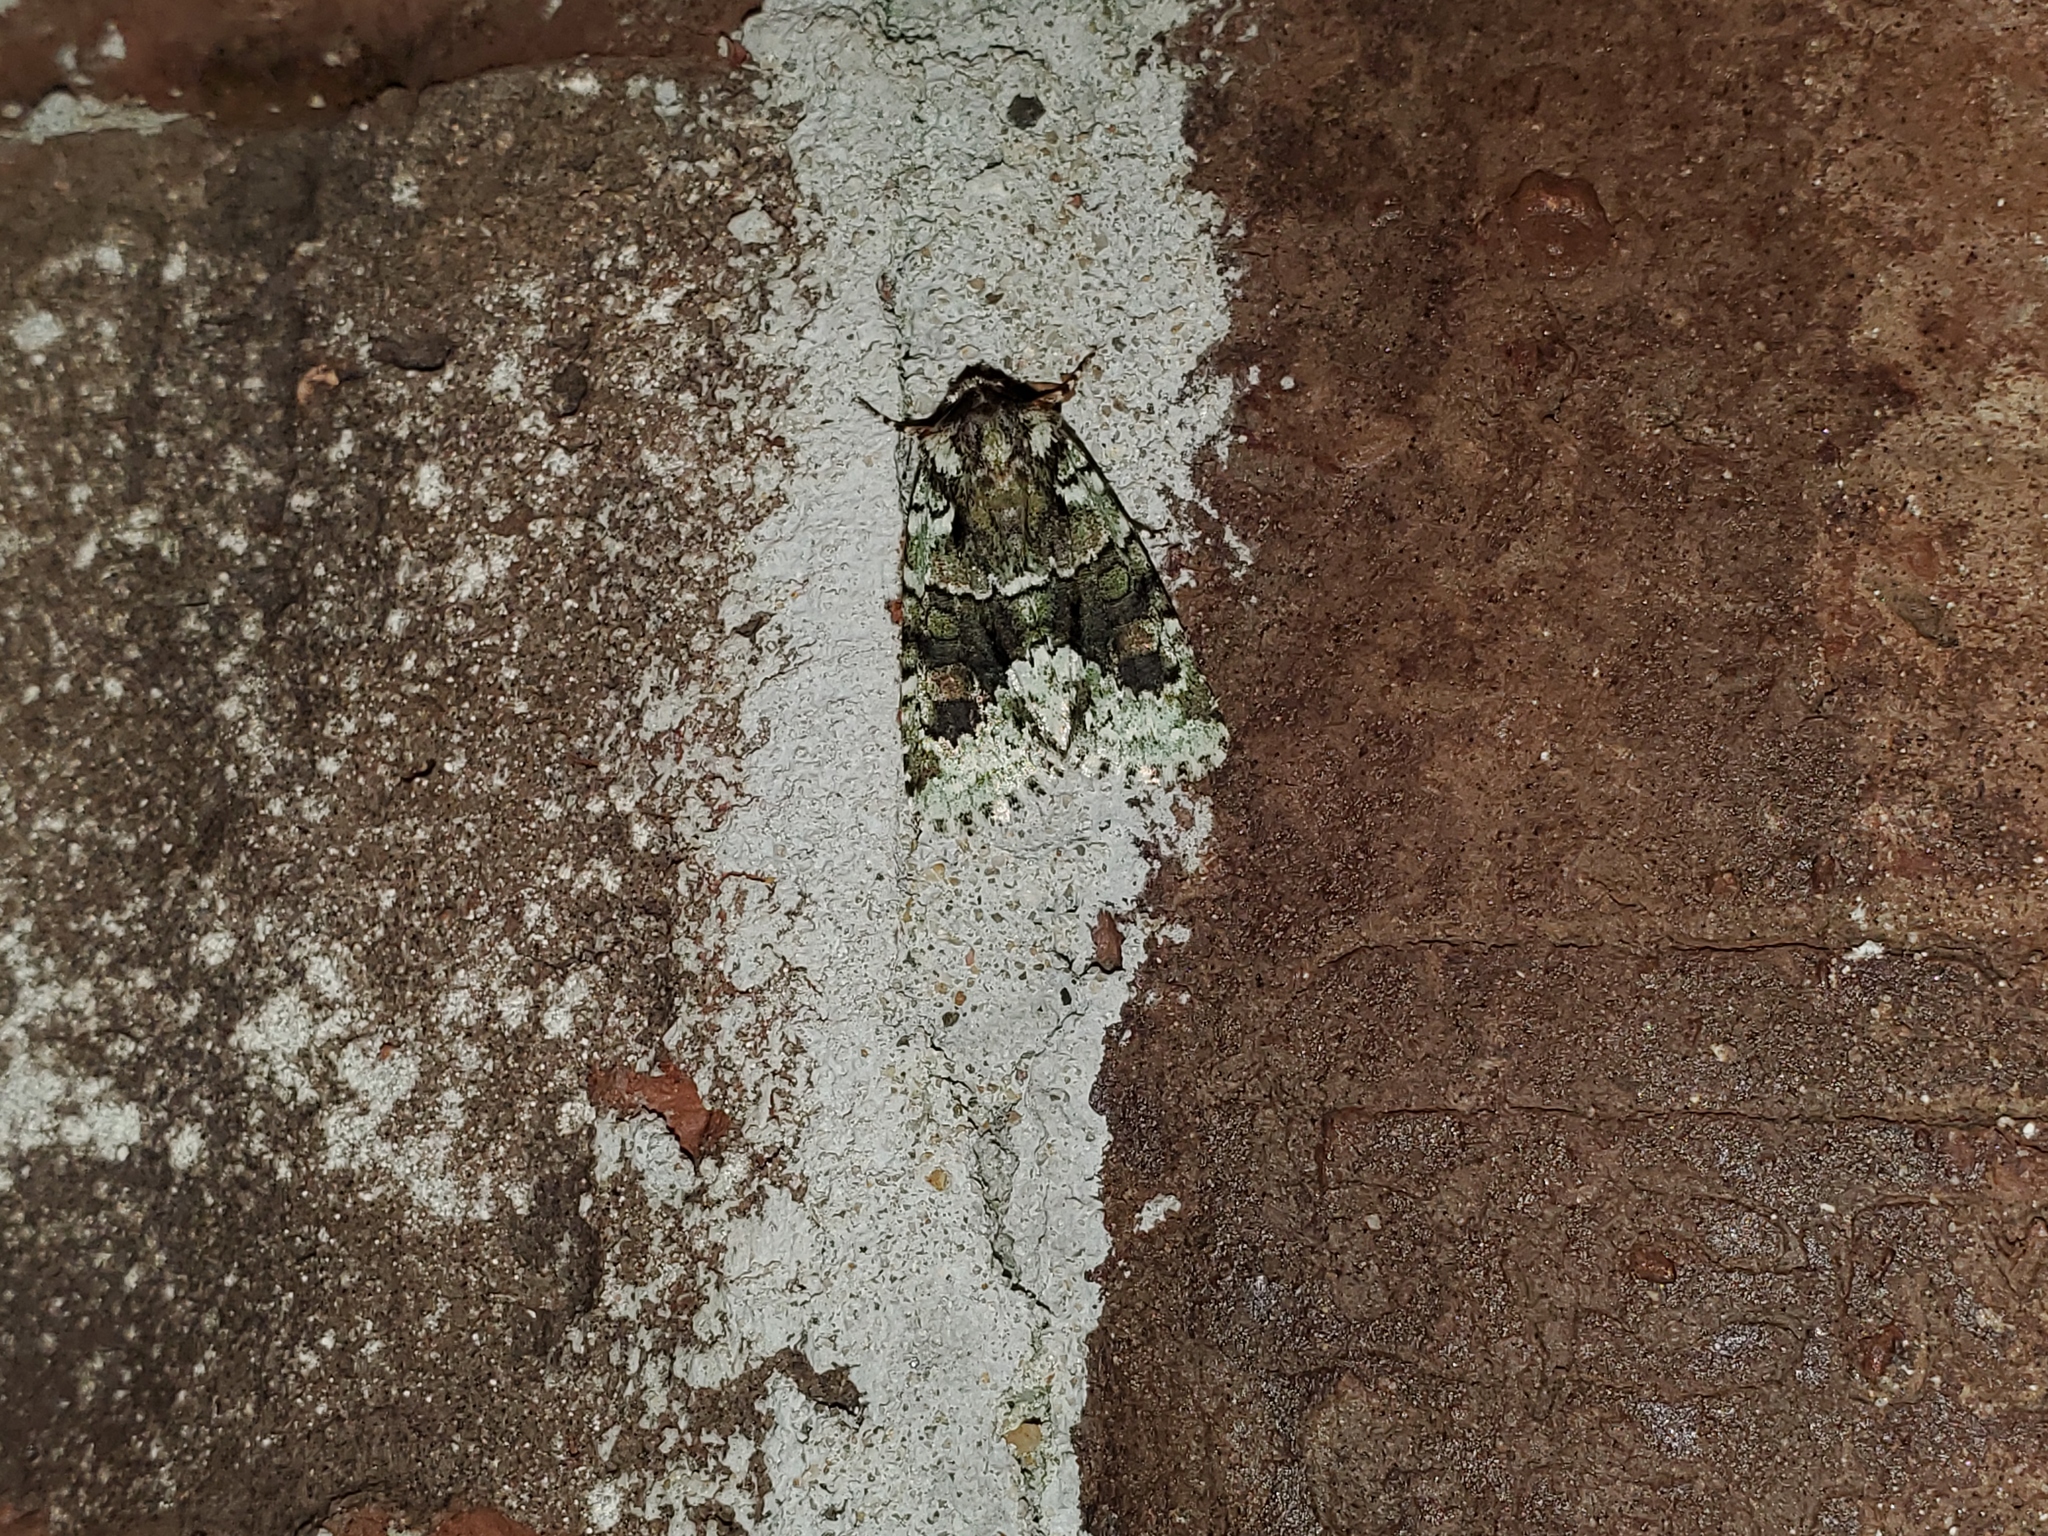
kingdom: Animalia
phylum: Arthropoda
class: Insecta
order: Lepidoptera
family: Noctuidae
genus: Lacinipolia
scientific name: Lacinipolia explicata
